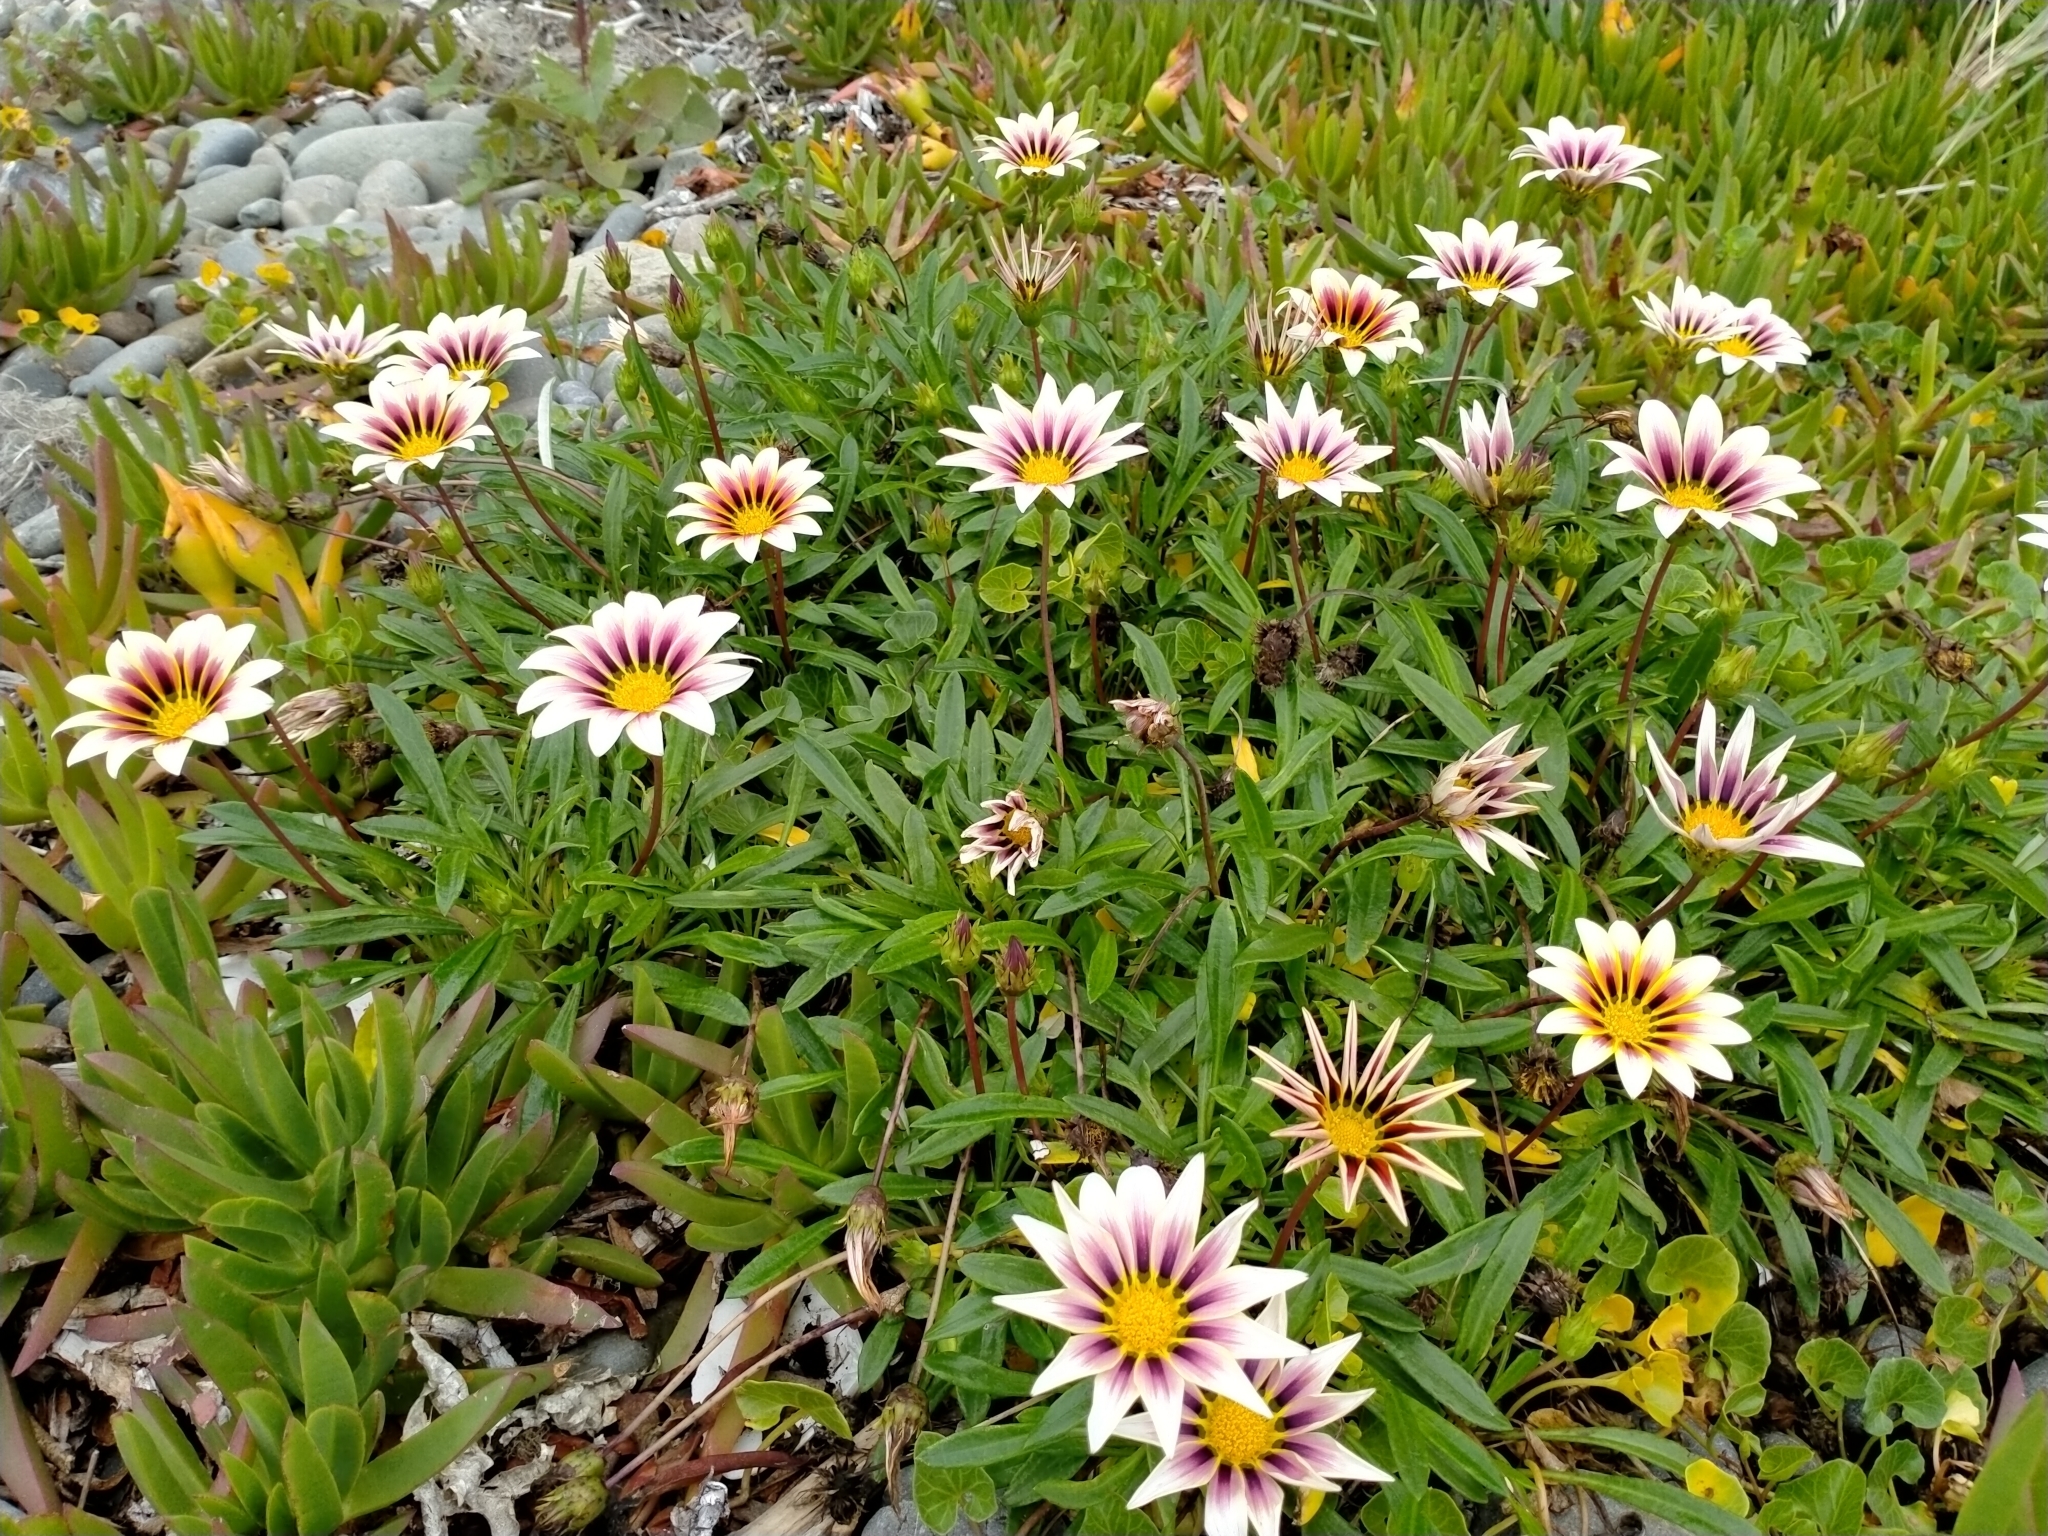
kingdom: Plantae
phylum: Tracheophyta
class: Magnoliopsida
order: Asterales
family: Asteraceae
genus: Gazania
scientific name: Gazania splendens
